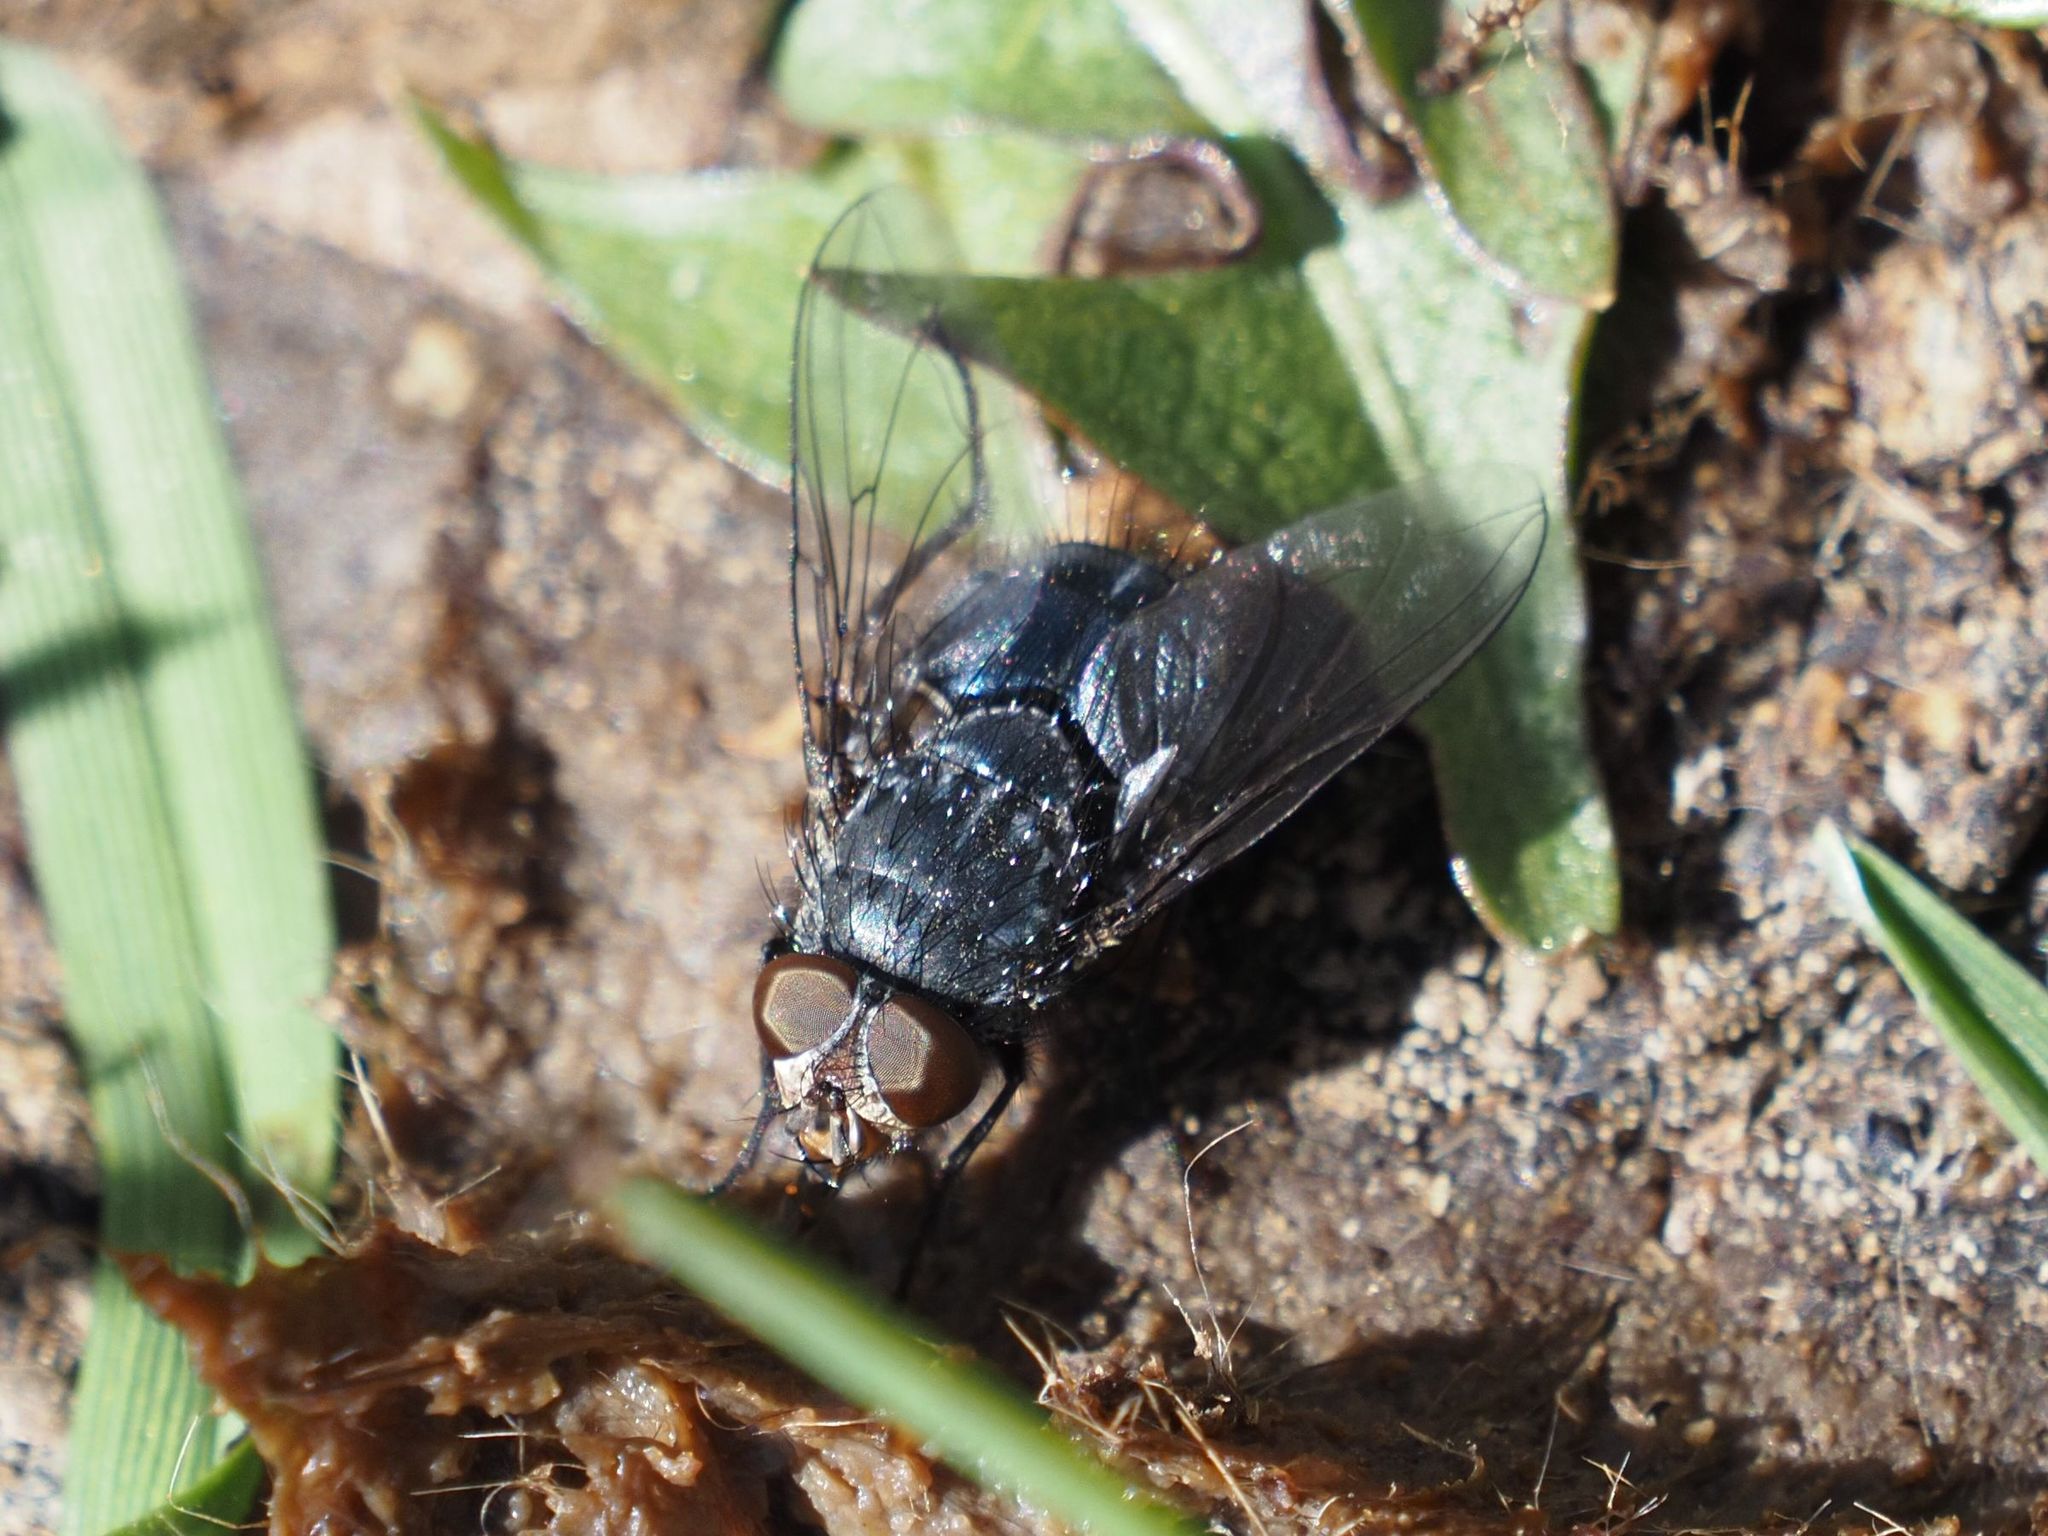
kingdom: Animalia
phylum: Arthropoda
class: Insecta
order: Diptera
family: Calliphoridae
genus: Calliphora
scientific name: Calliphora vicina
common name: Common blow flie
